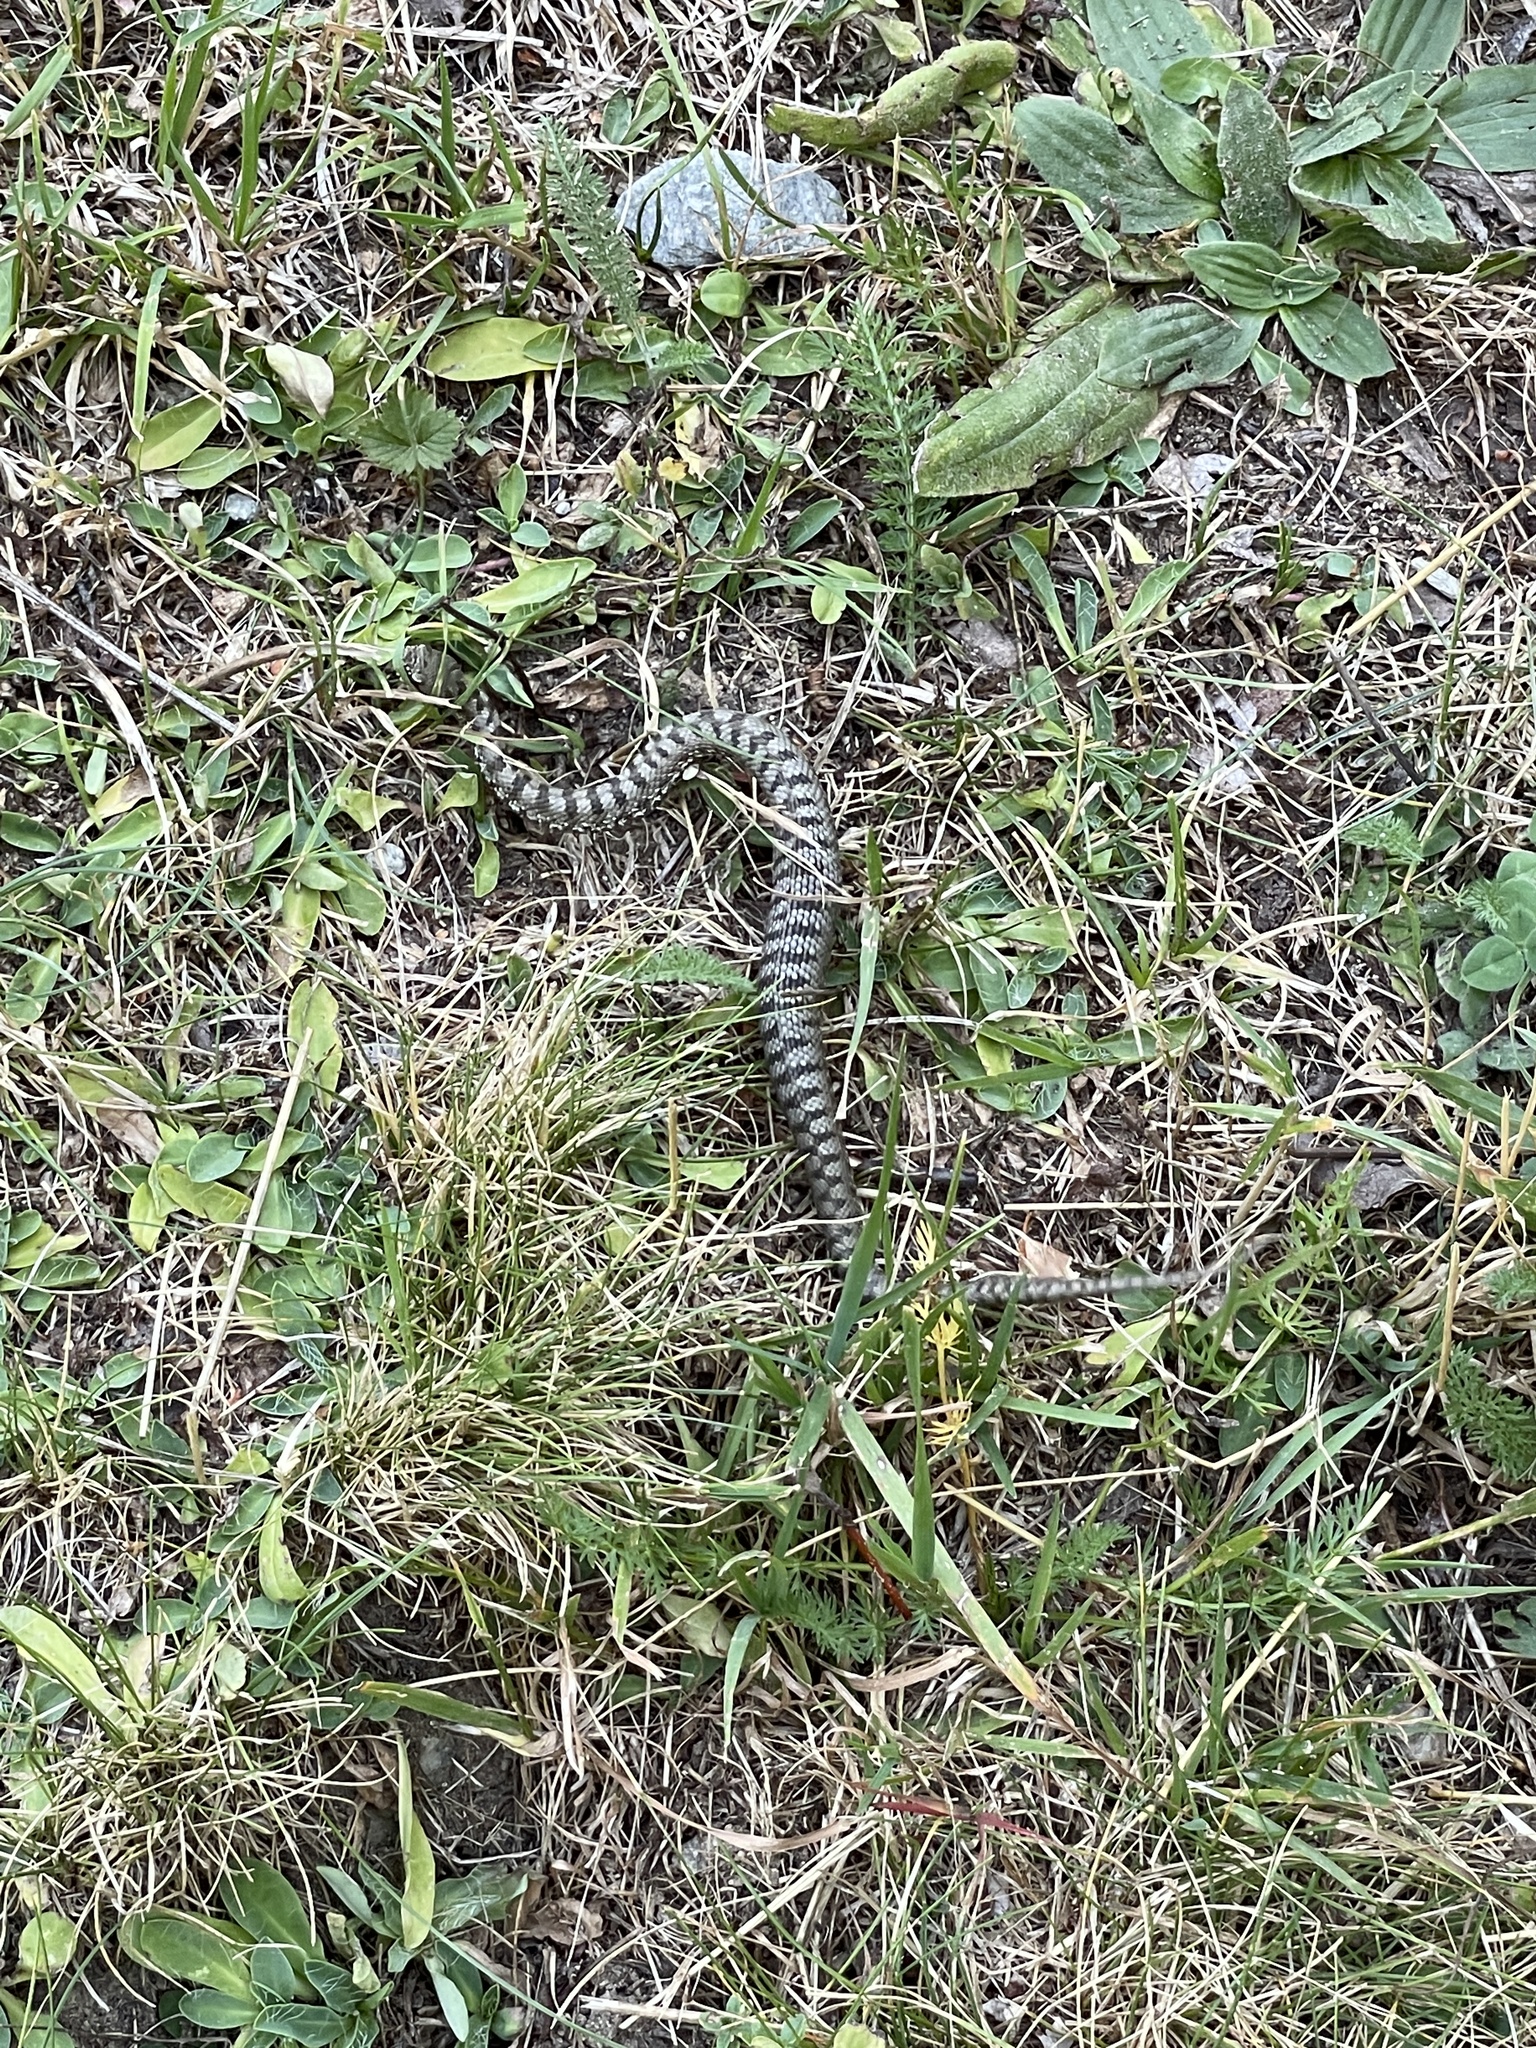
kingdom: Animalia
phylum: Chordata
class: Squamata
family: Viperidae
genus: Vipera
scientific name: Vipera aspis
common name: Asp viper
